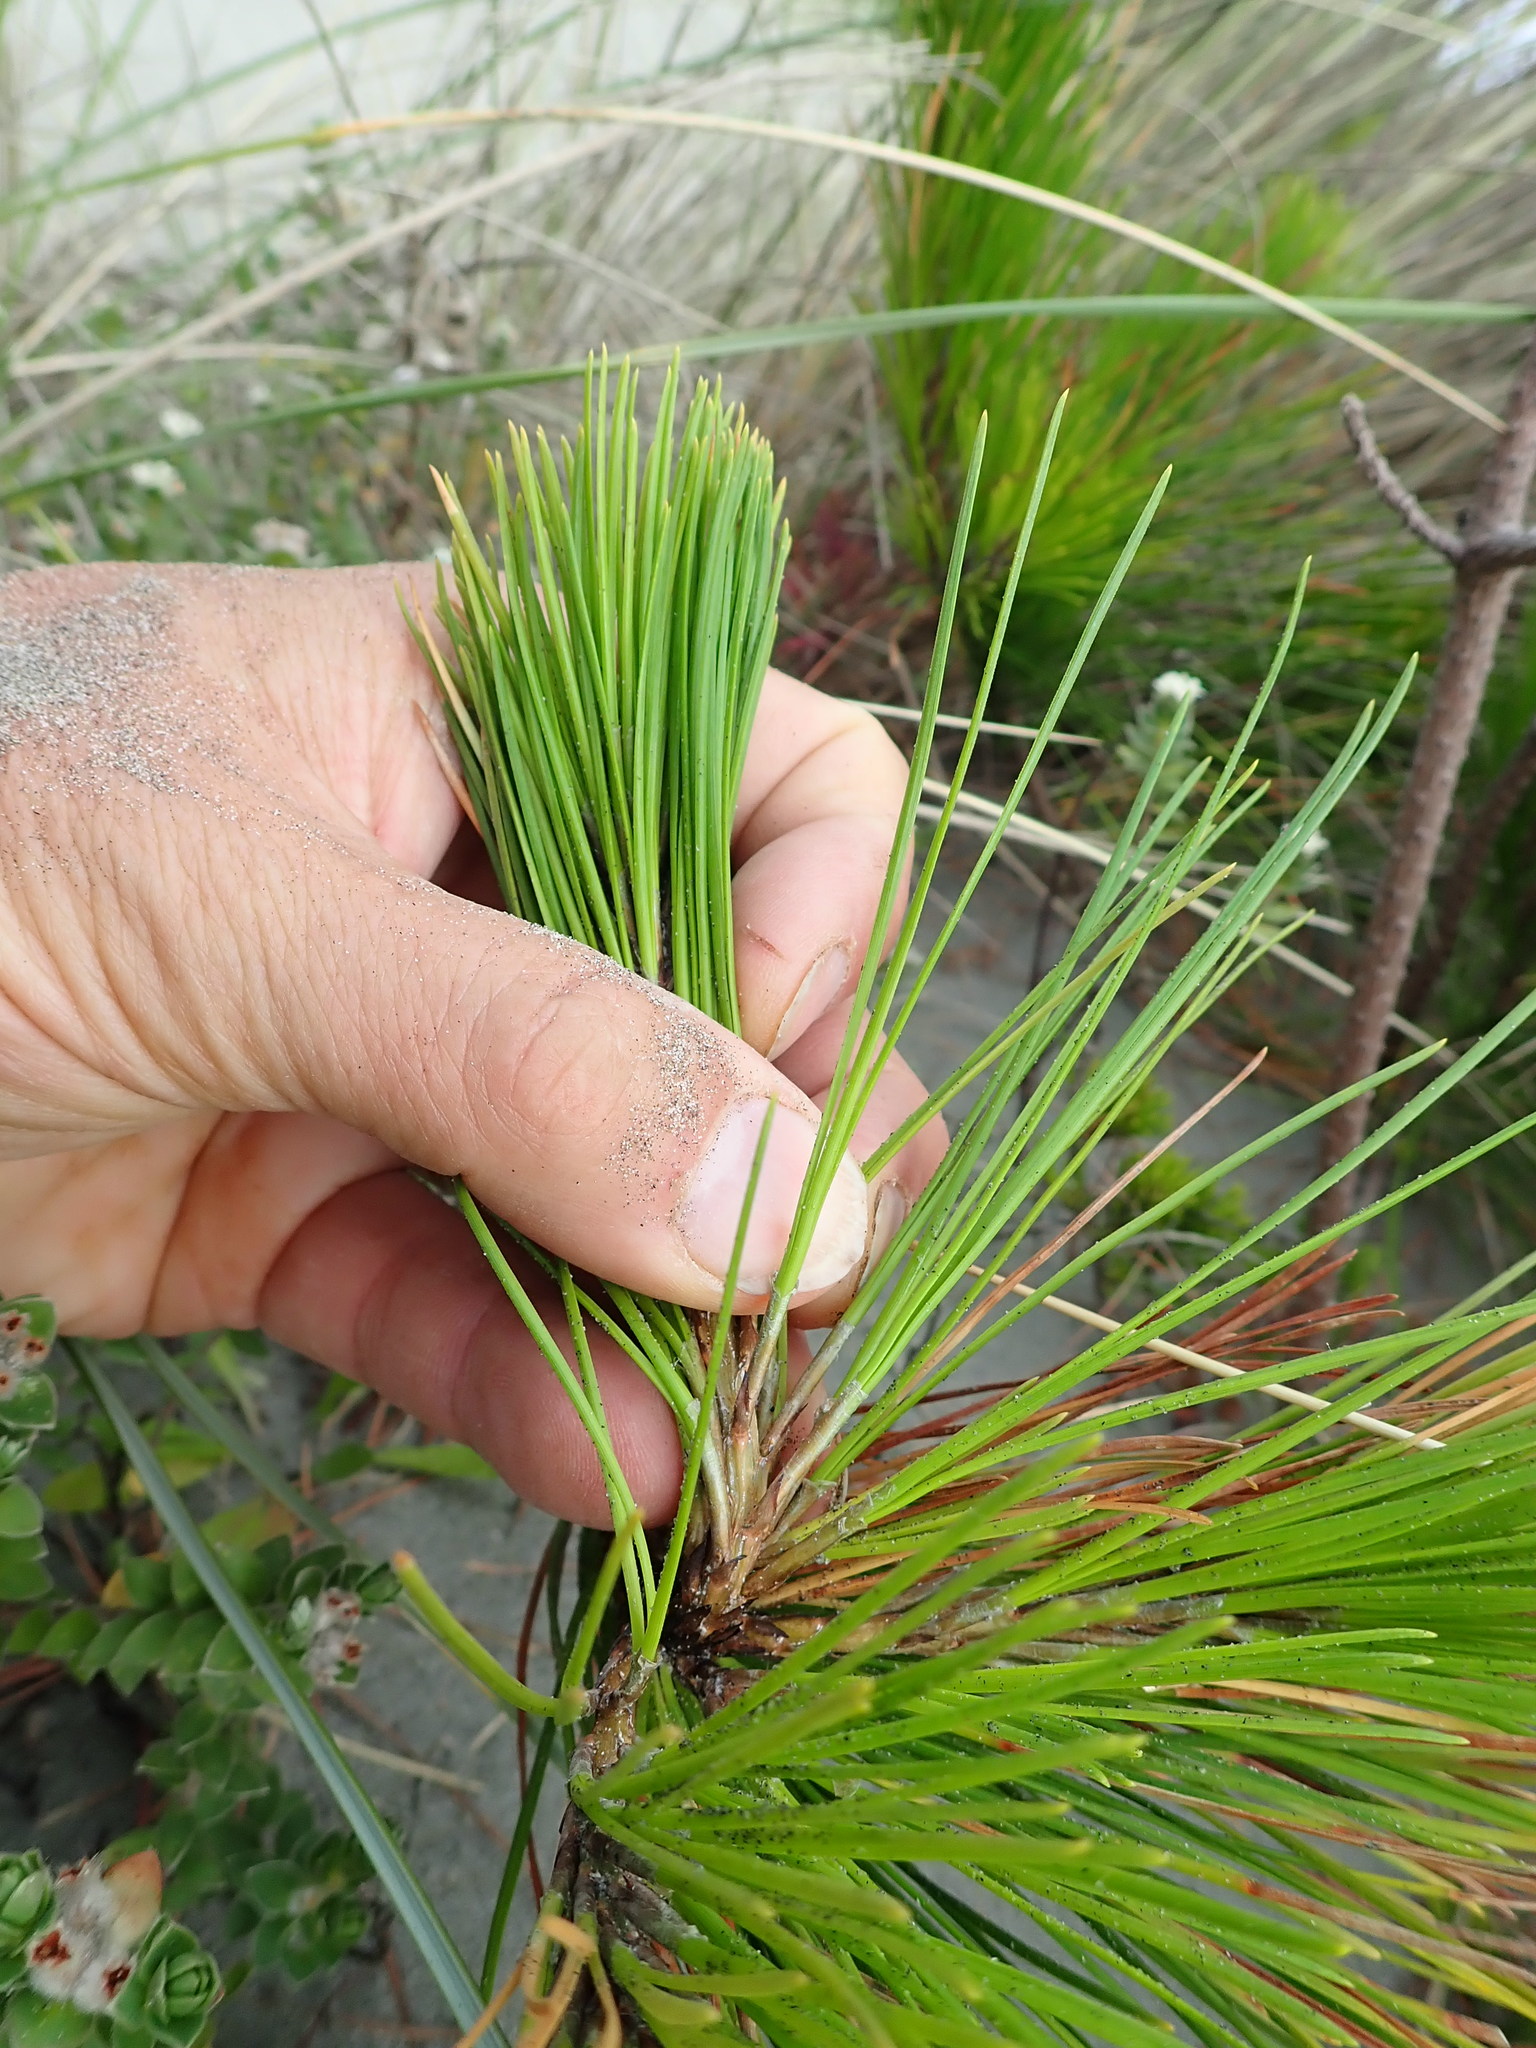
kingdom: Plantae
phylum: Tracheophyta
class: Pinopsida
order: Pinales
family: Pinaceae
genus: Pinus
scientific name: Pinus radiata
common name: Monterey pine
